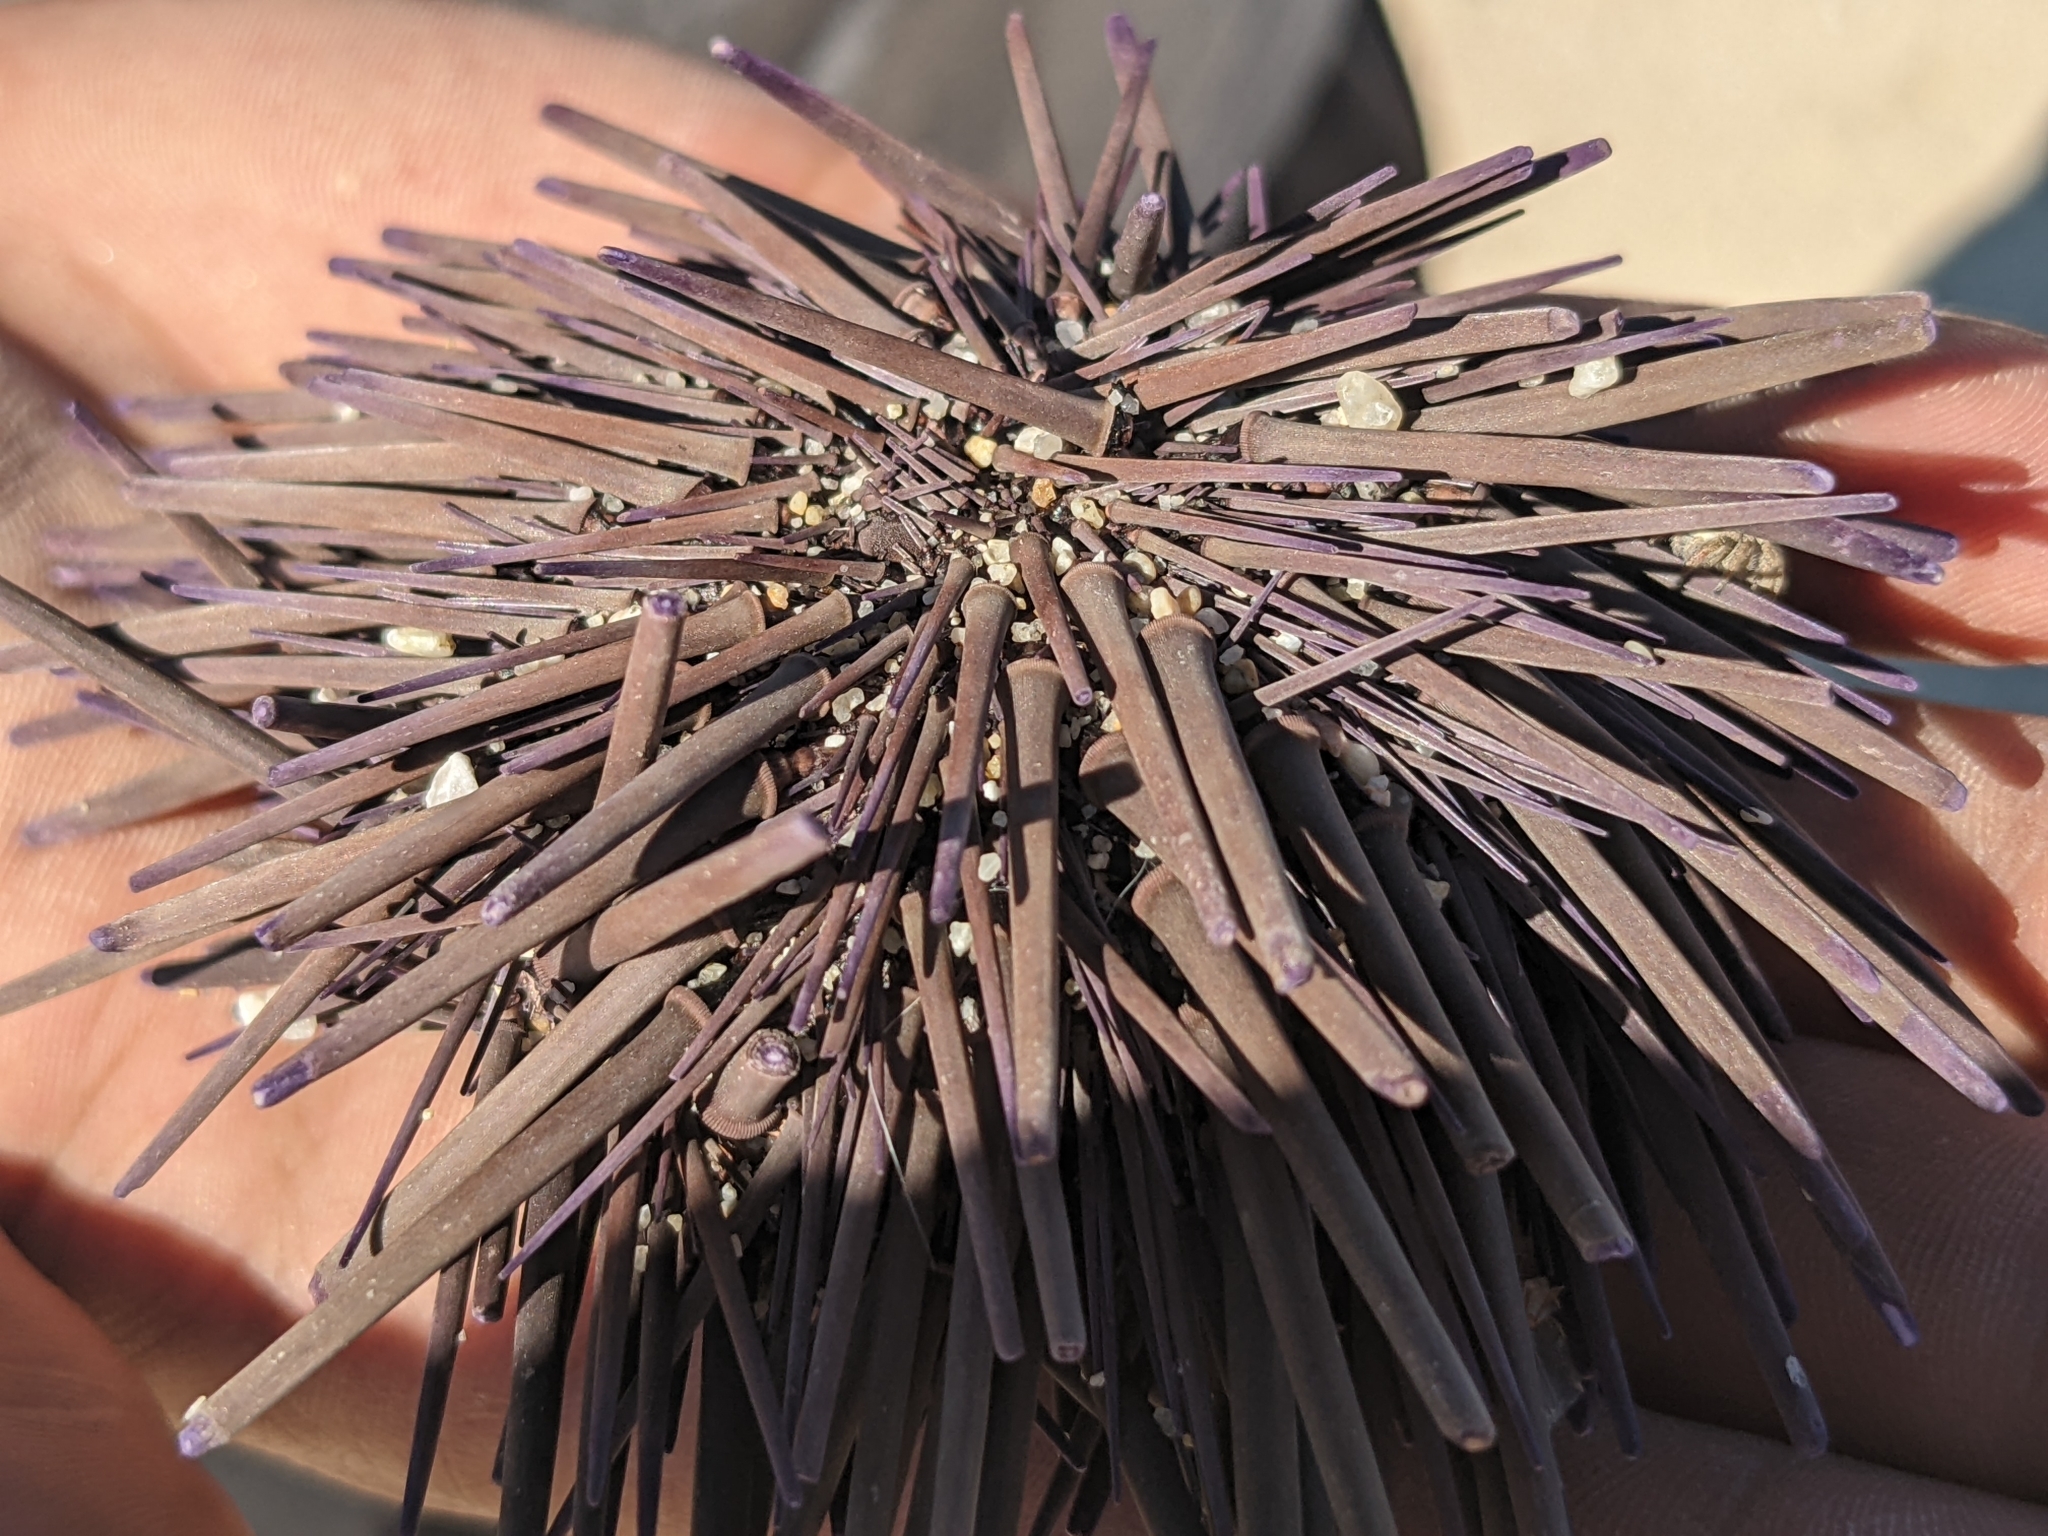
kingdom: Animalia
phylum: Echinodermata
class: Echinoidea
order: Camarodonta
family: Echinometridae
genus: Echinometra
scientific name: Echinometra vanbrunti
